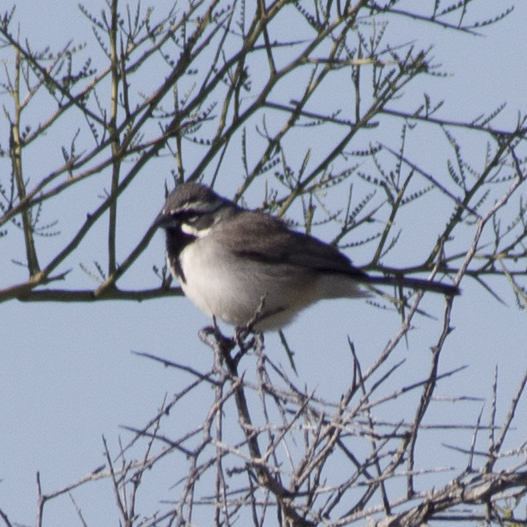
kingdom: Animalia
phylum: Chordata
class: Aves
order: Passeriformes
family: Passerellidae
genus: Amphispiza
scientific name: Amphispiza bilineata
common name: Black-throated sparrow
